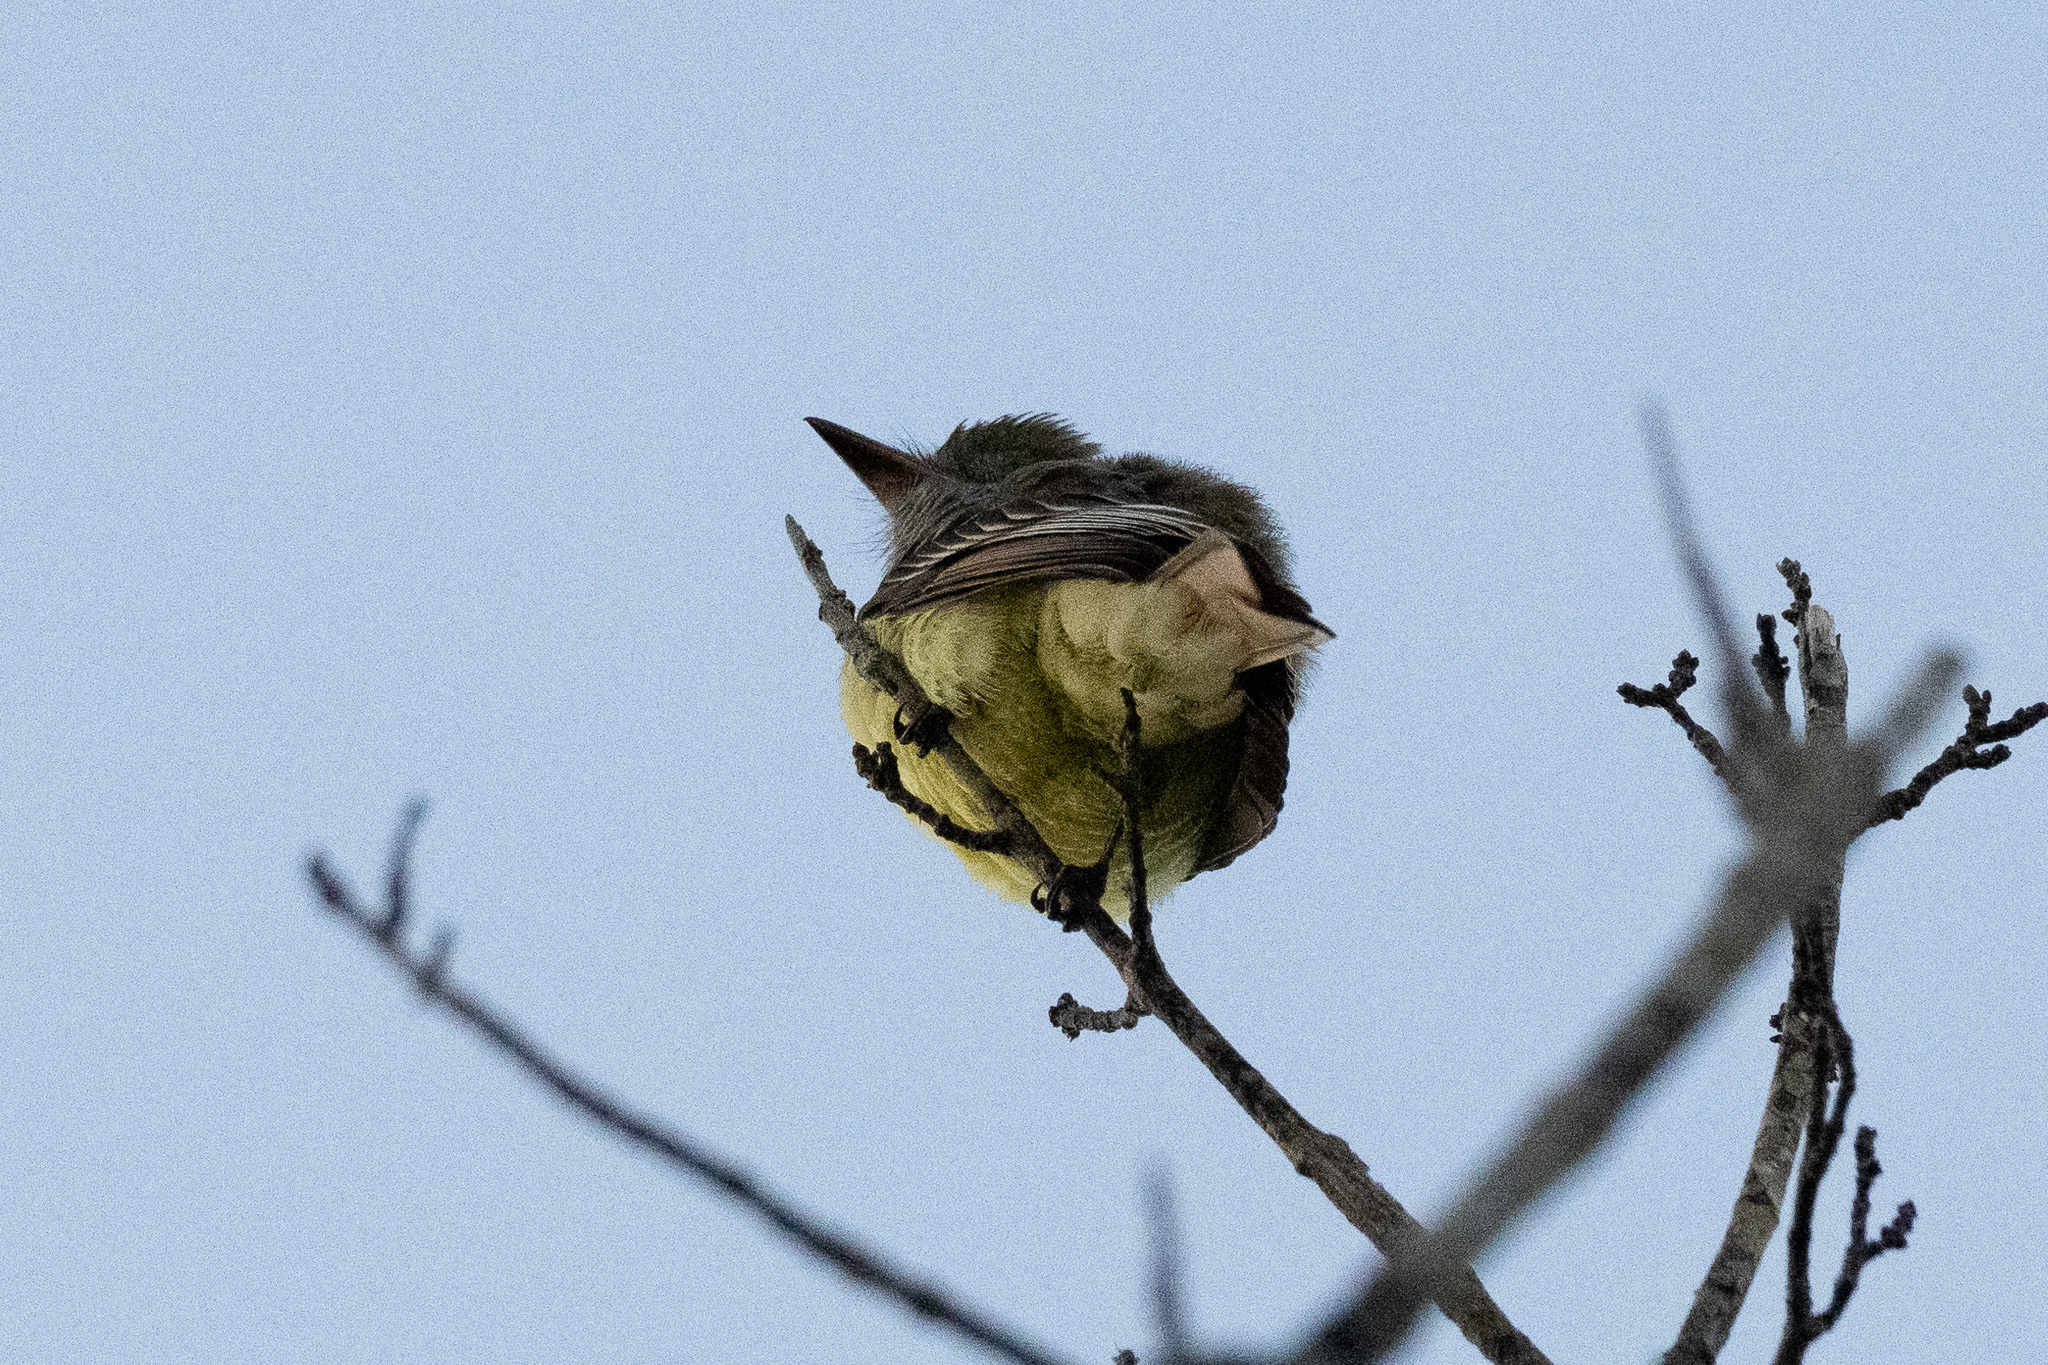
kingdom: Animalia
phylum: Chordata
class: Aves
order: Passeriformes
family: Tyrannidae
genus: Myiarchus
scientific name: Myiarchus crinitus
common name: Great crested flycatcher
